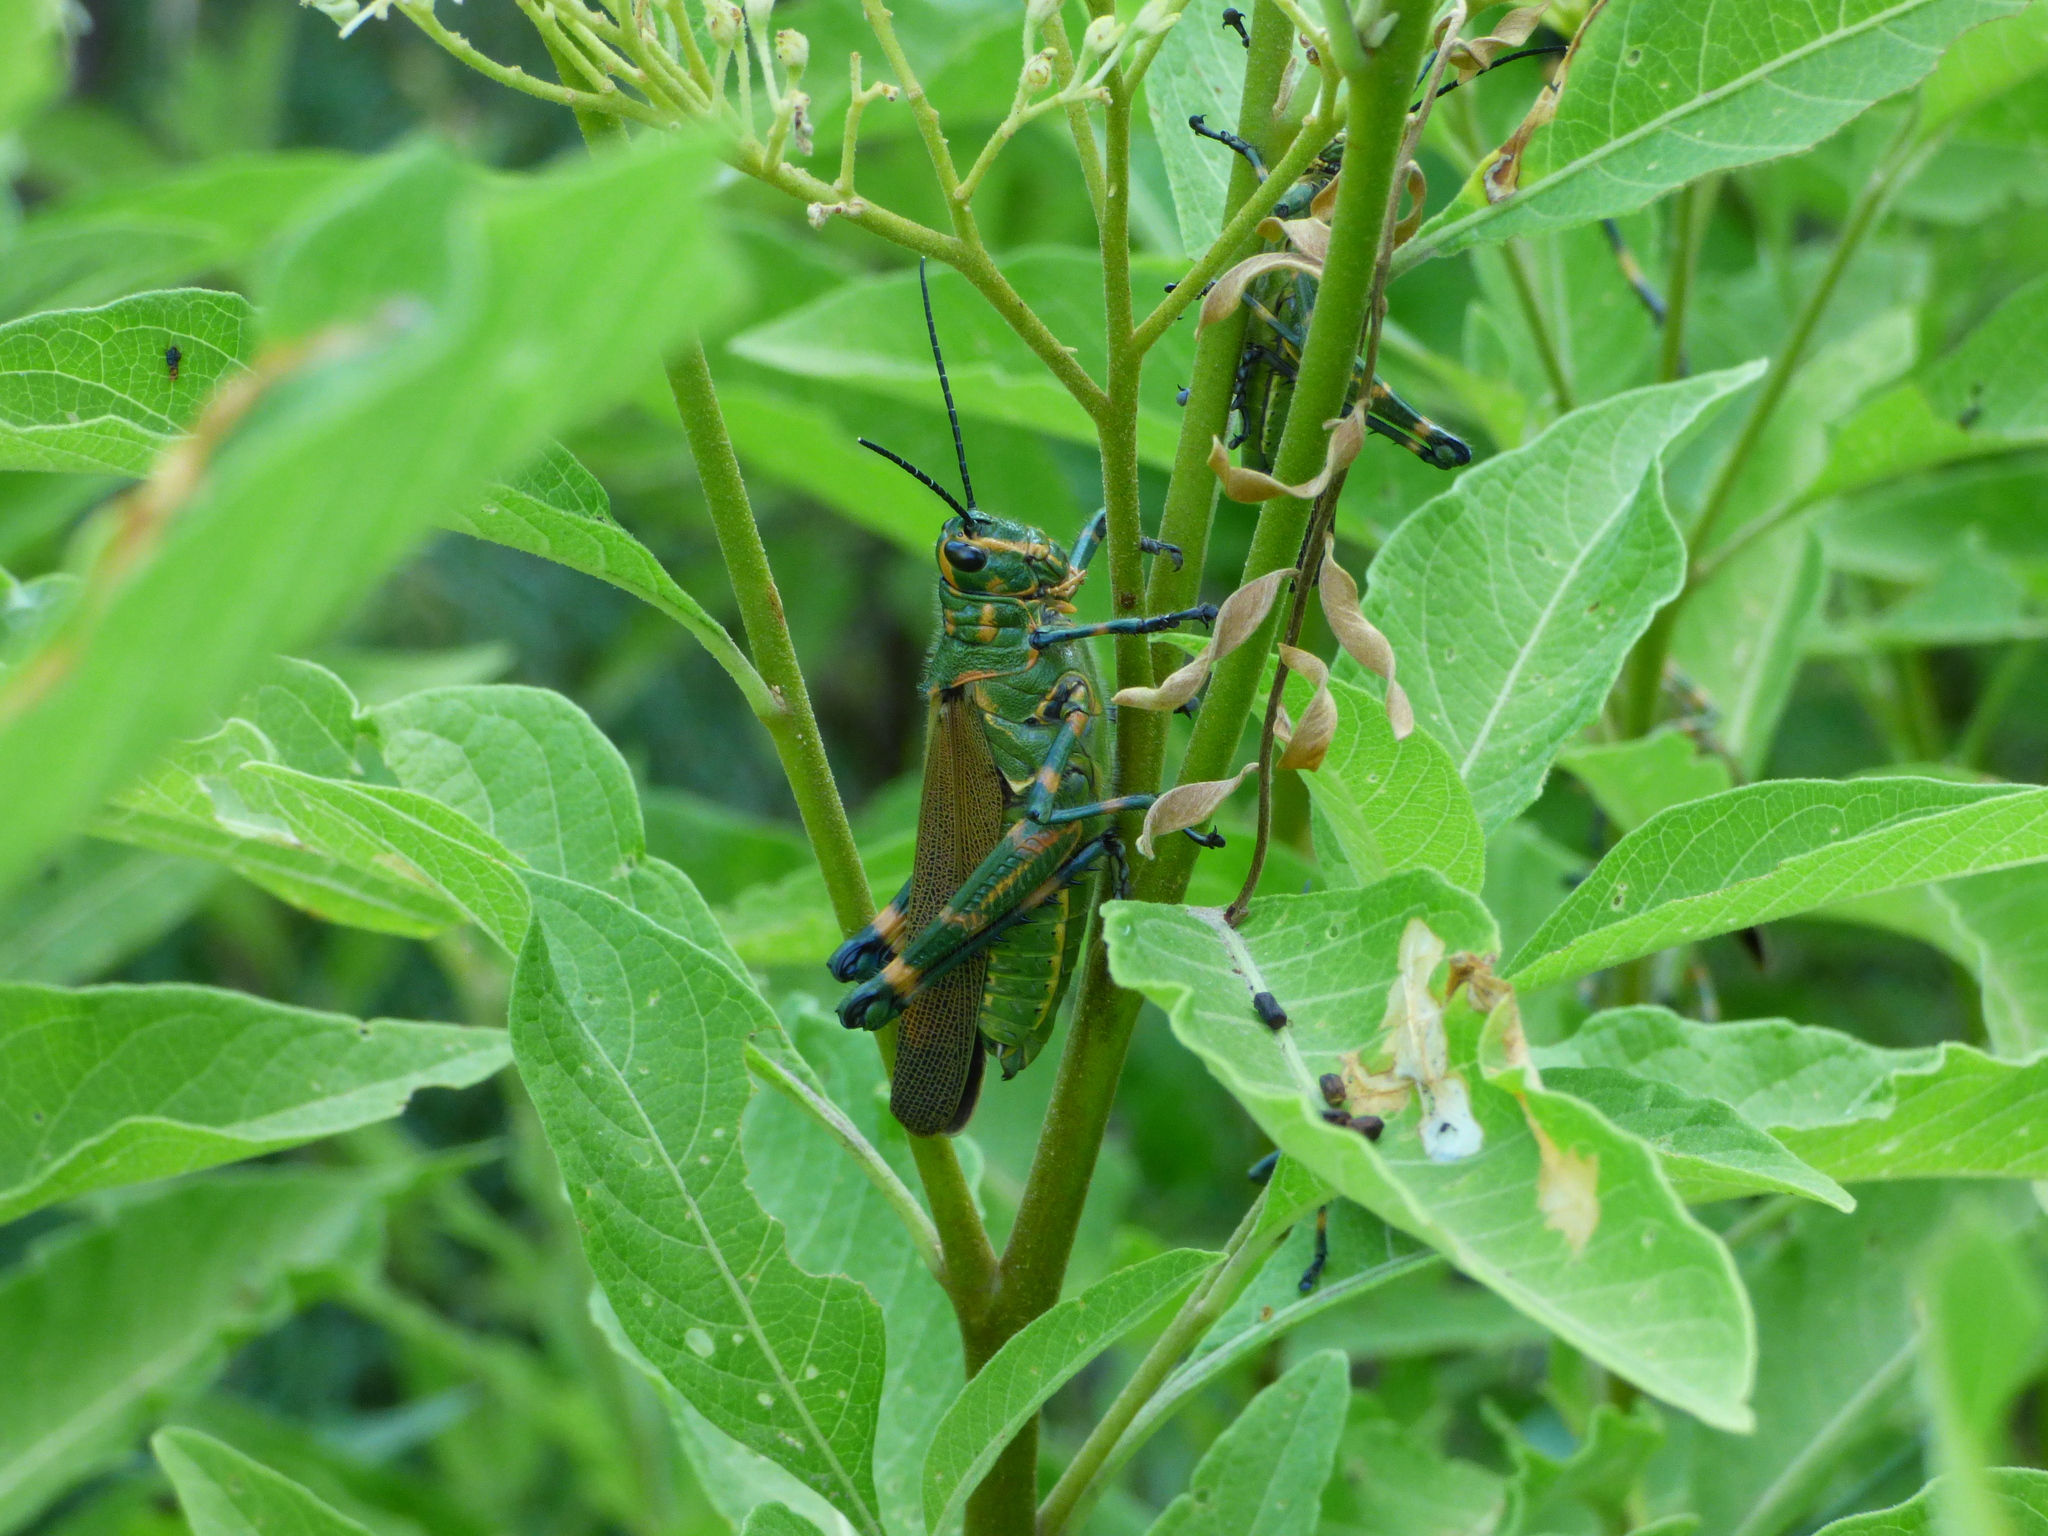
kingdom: Animalia
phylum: Arthropoda
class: Insecta
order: Orthoptera
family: Romaleidae
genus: Chromacris
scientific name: Chromacris speciosa
